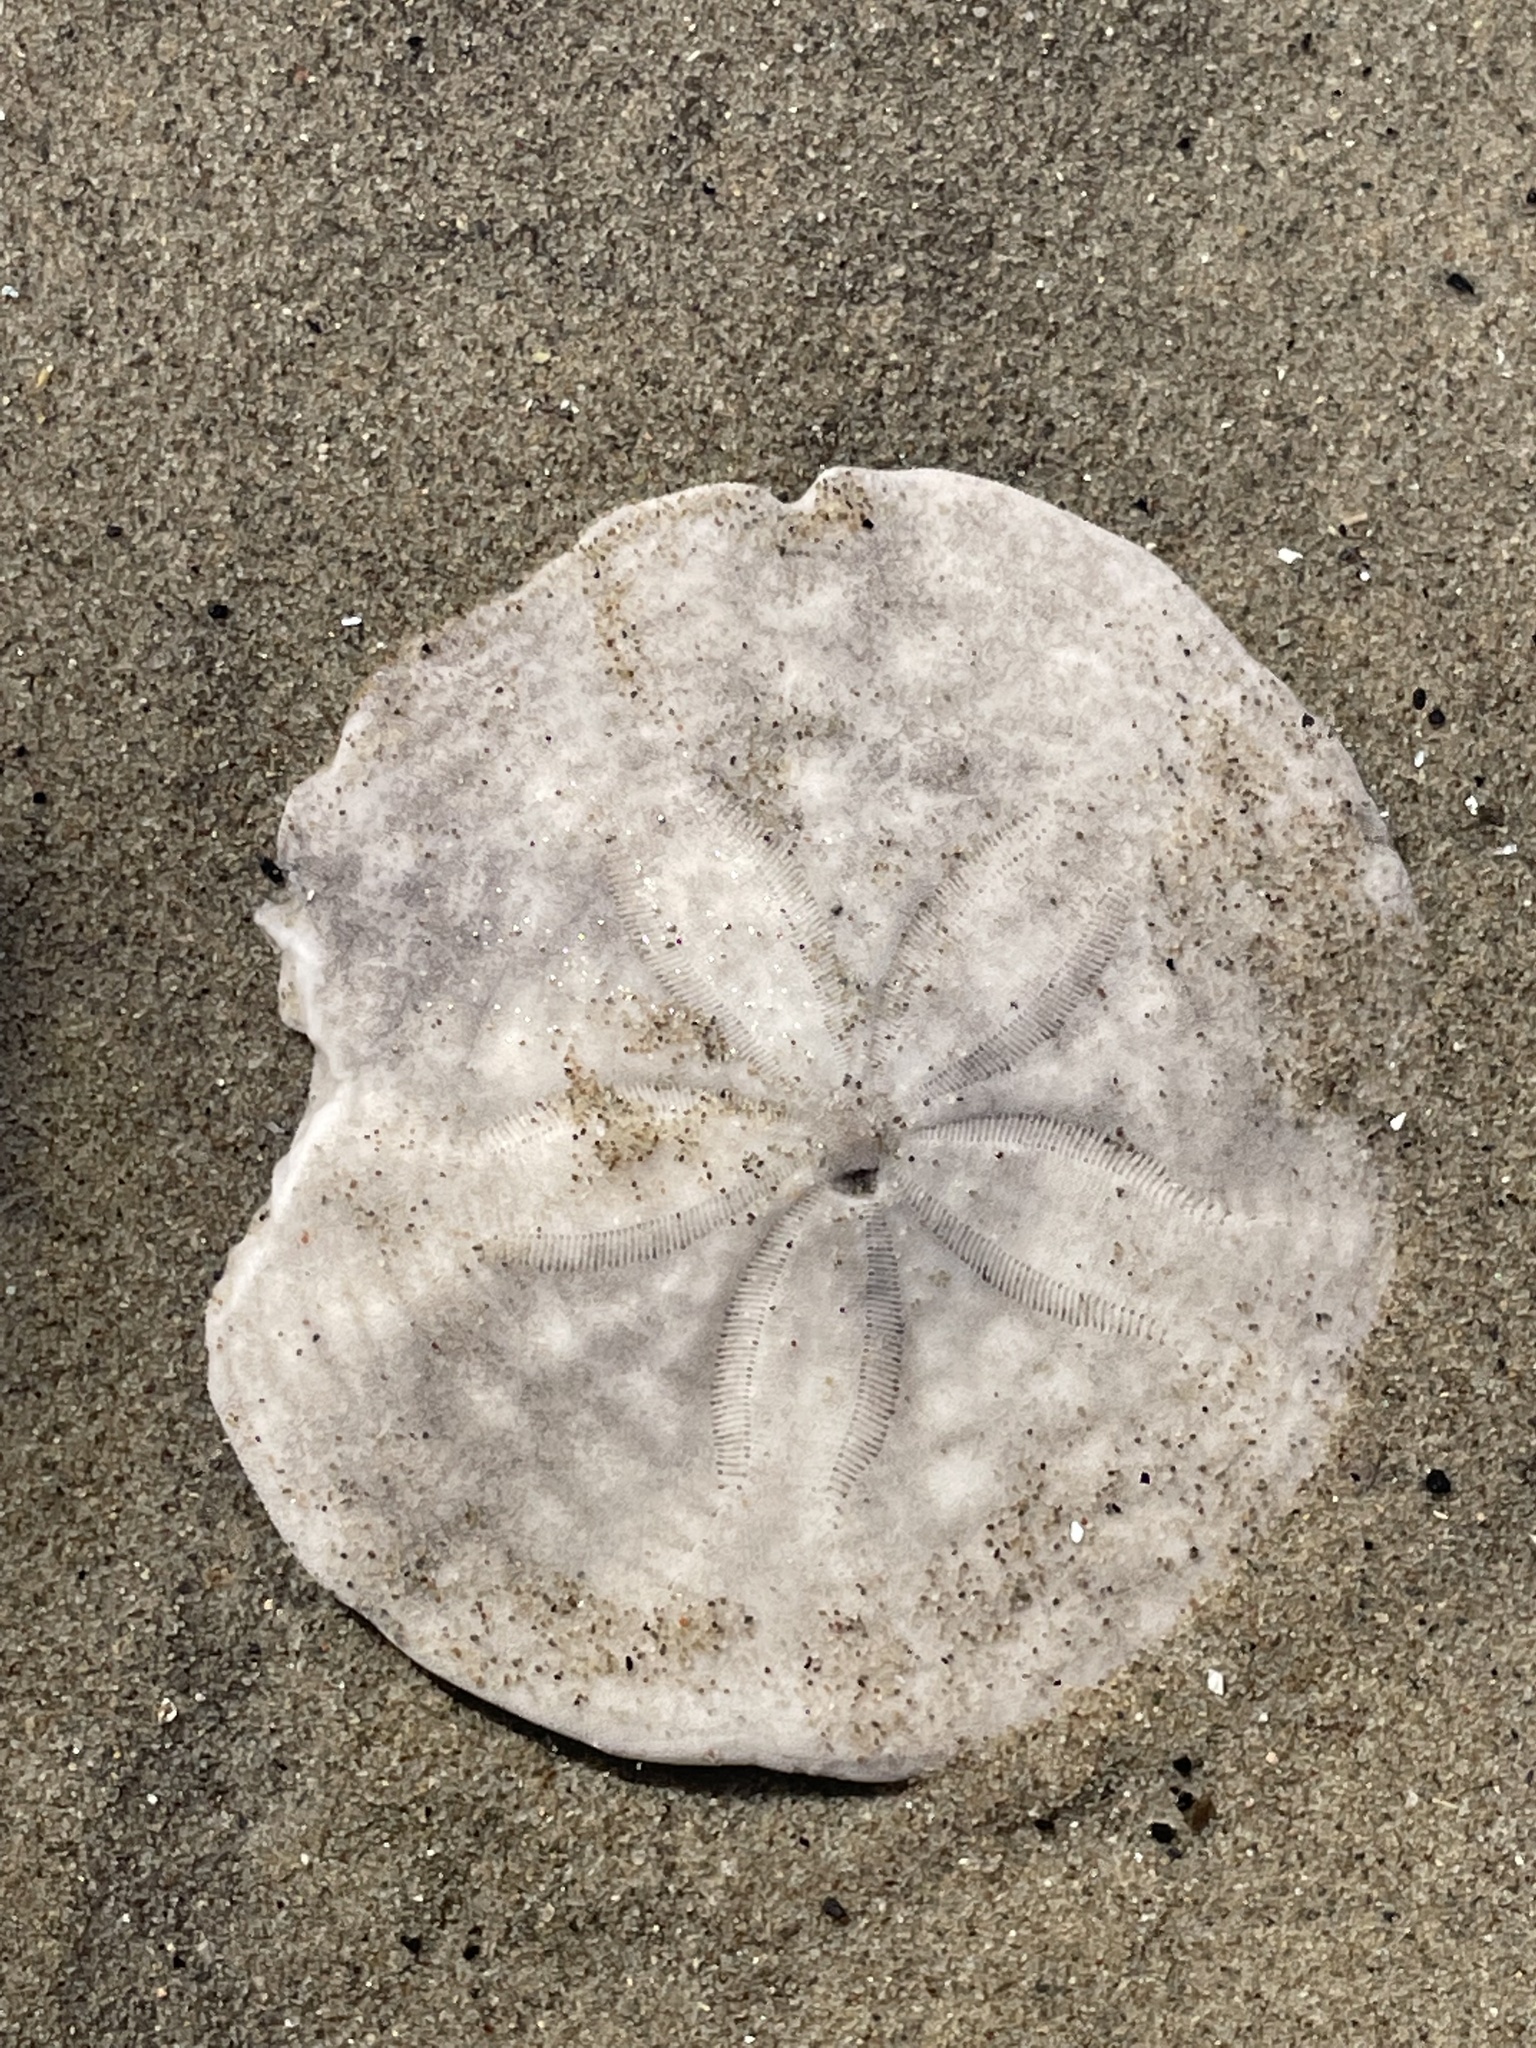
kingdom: Animalia
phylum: Echinodermata
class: Echinoidea
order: Echinolampadacea
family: Echinarachniidae
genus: Echinarachnius
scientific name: Echinarachnius parma
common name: Common sand dollar
